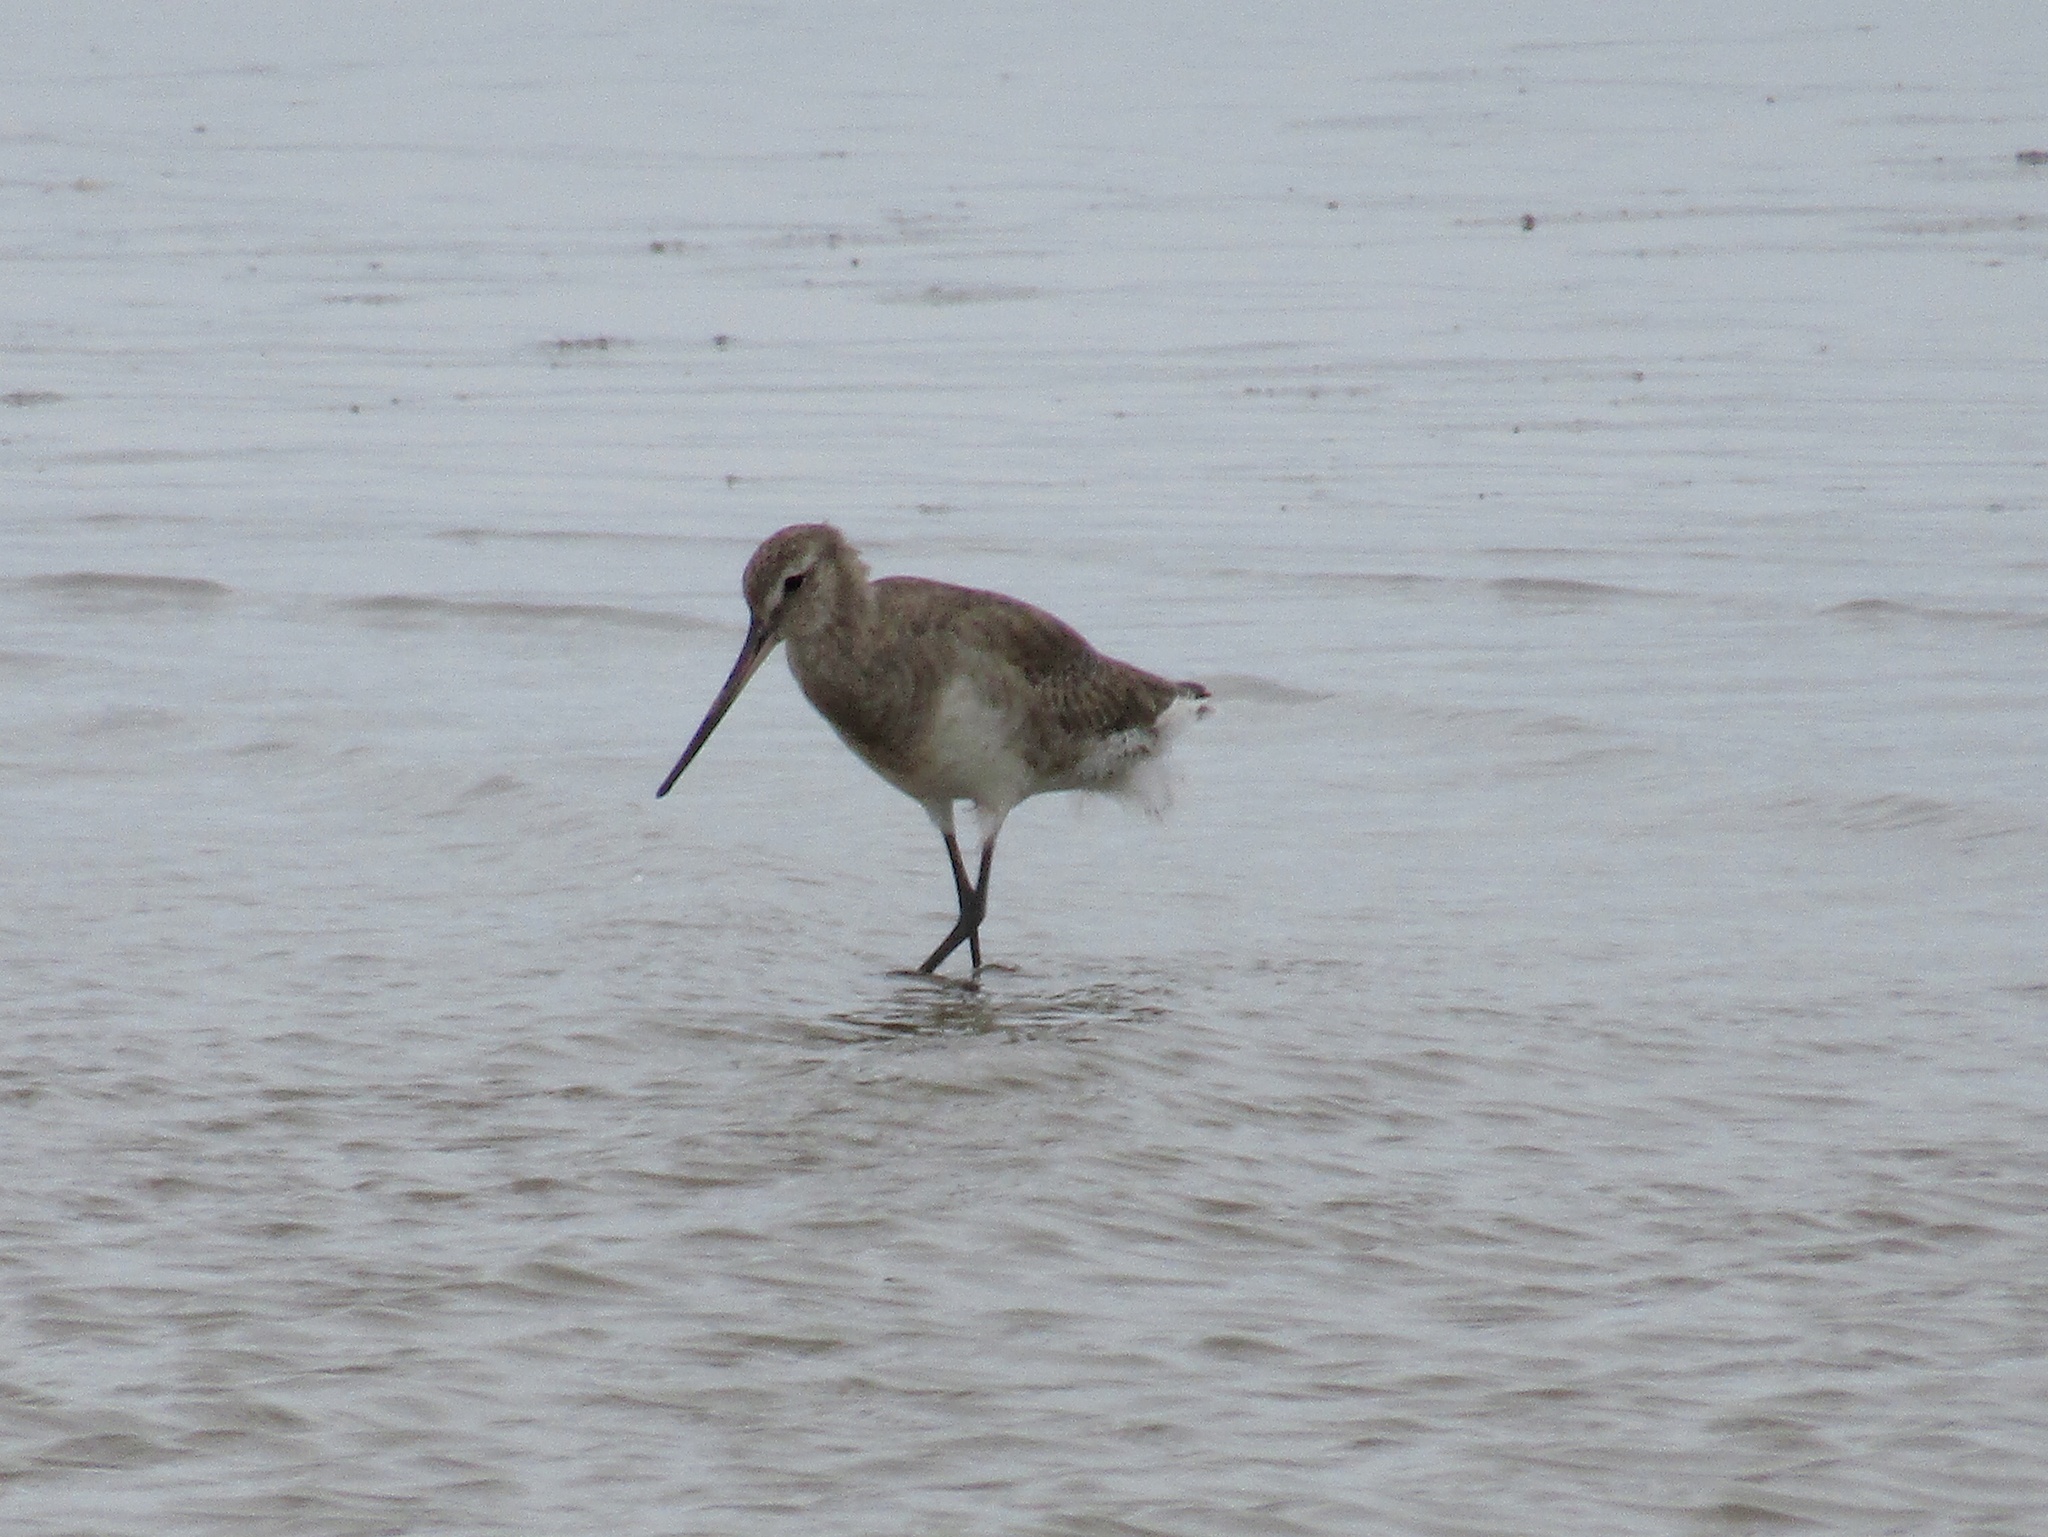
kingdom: Animalia
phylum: Chordata
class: Aves
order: Charadriiformes
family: Scolopacidae
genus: Limosa
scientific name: Limosa haemastica
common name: Hudsonian godwit
